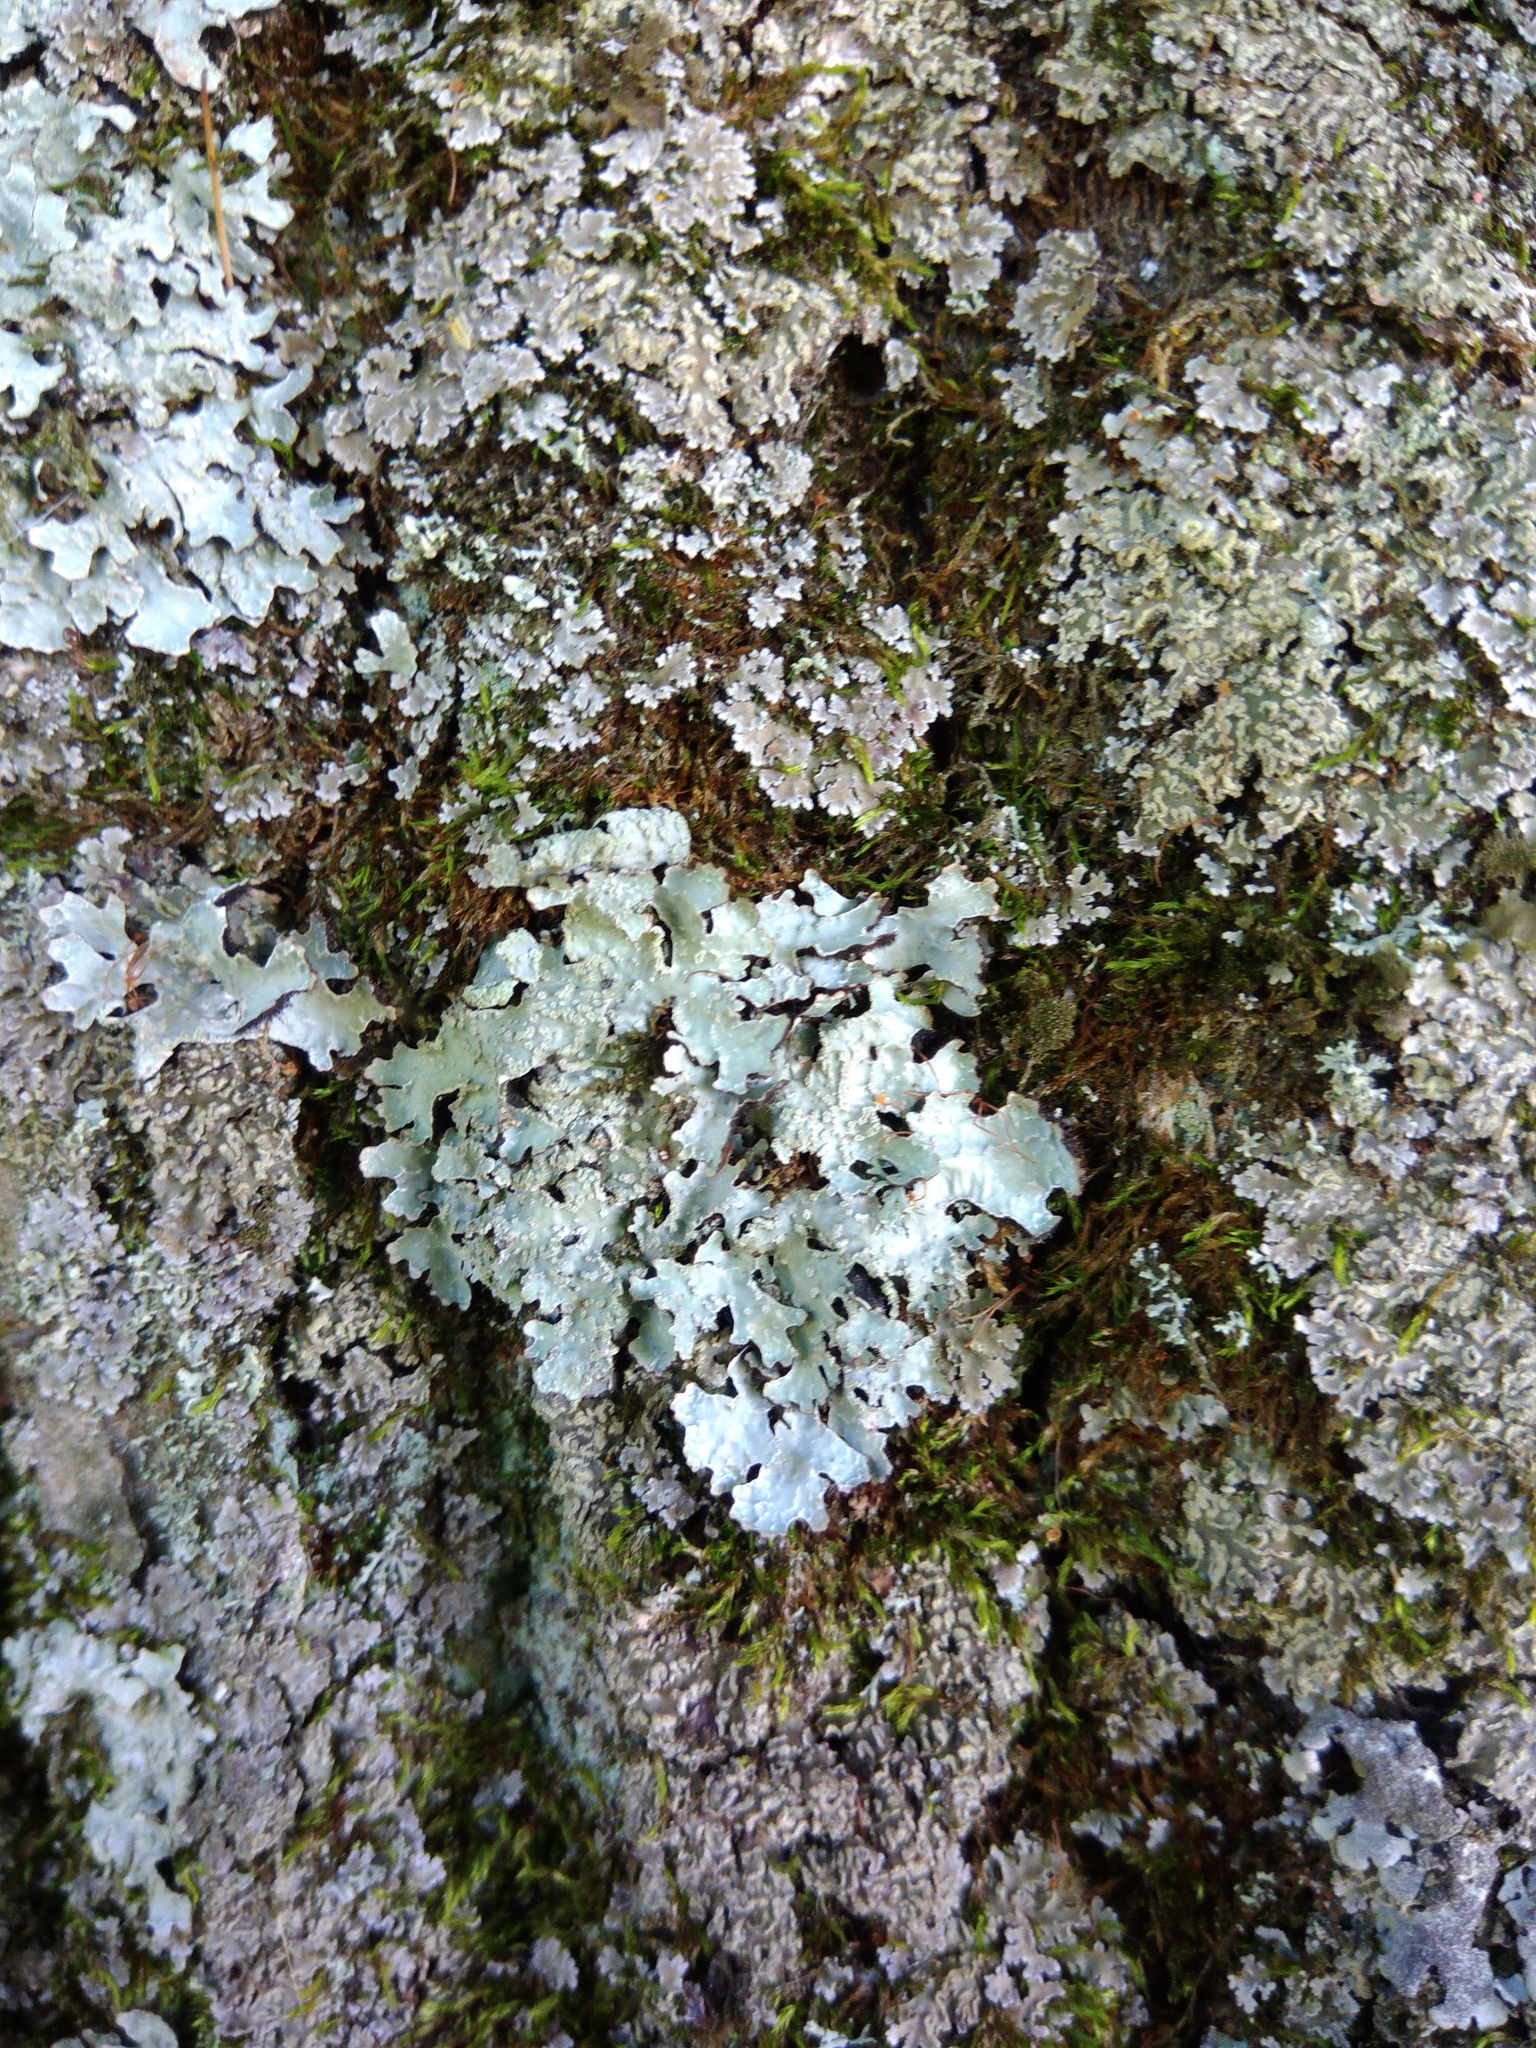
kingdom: Fungi
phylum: Ascomycota
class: Lecanoromycetes
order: Lecanorales
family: Parmeliaceae
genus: Parmelia
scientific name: Parmelia sulcata
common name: Netted shield lichen
